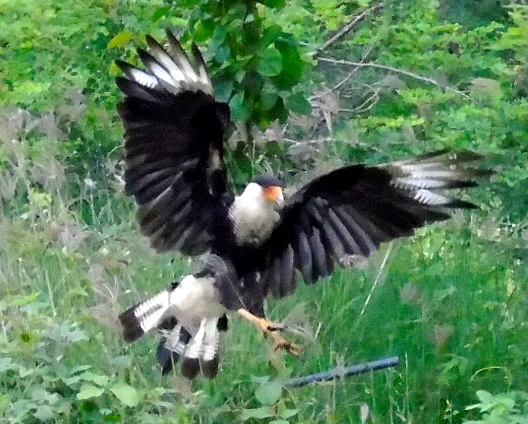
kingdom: Animalia
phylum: Chordata
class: Aves
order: Falconiformes
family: Falconidae
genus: Caracara
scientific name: Caracara plancus
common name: Southern caracara
